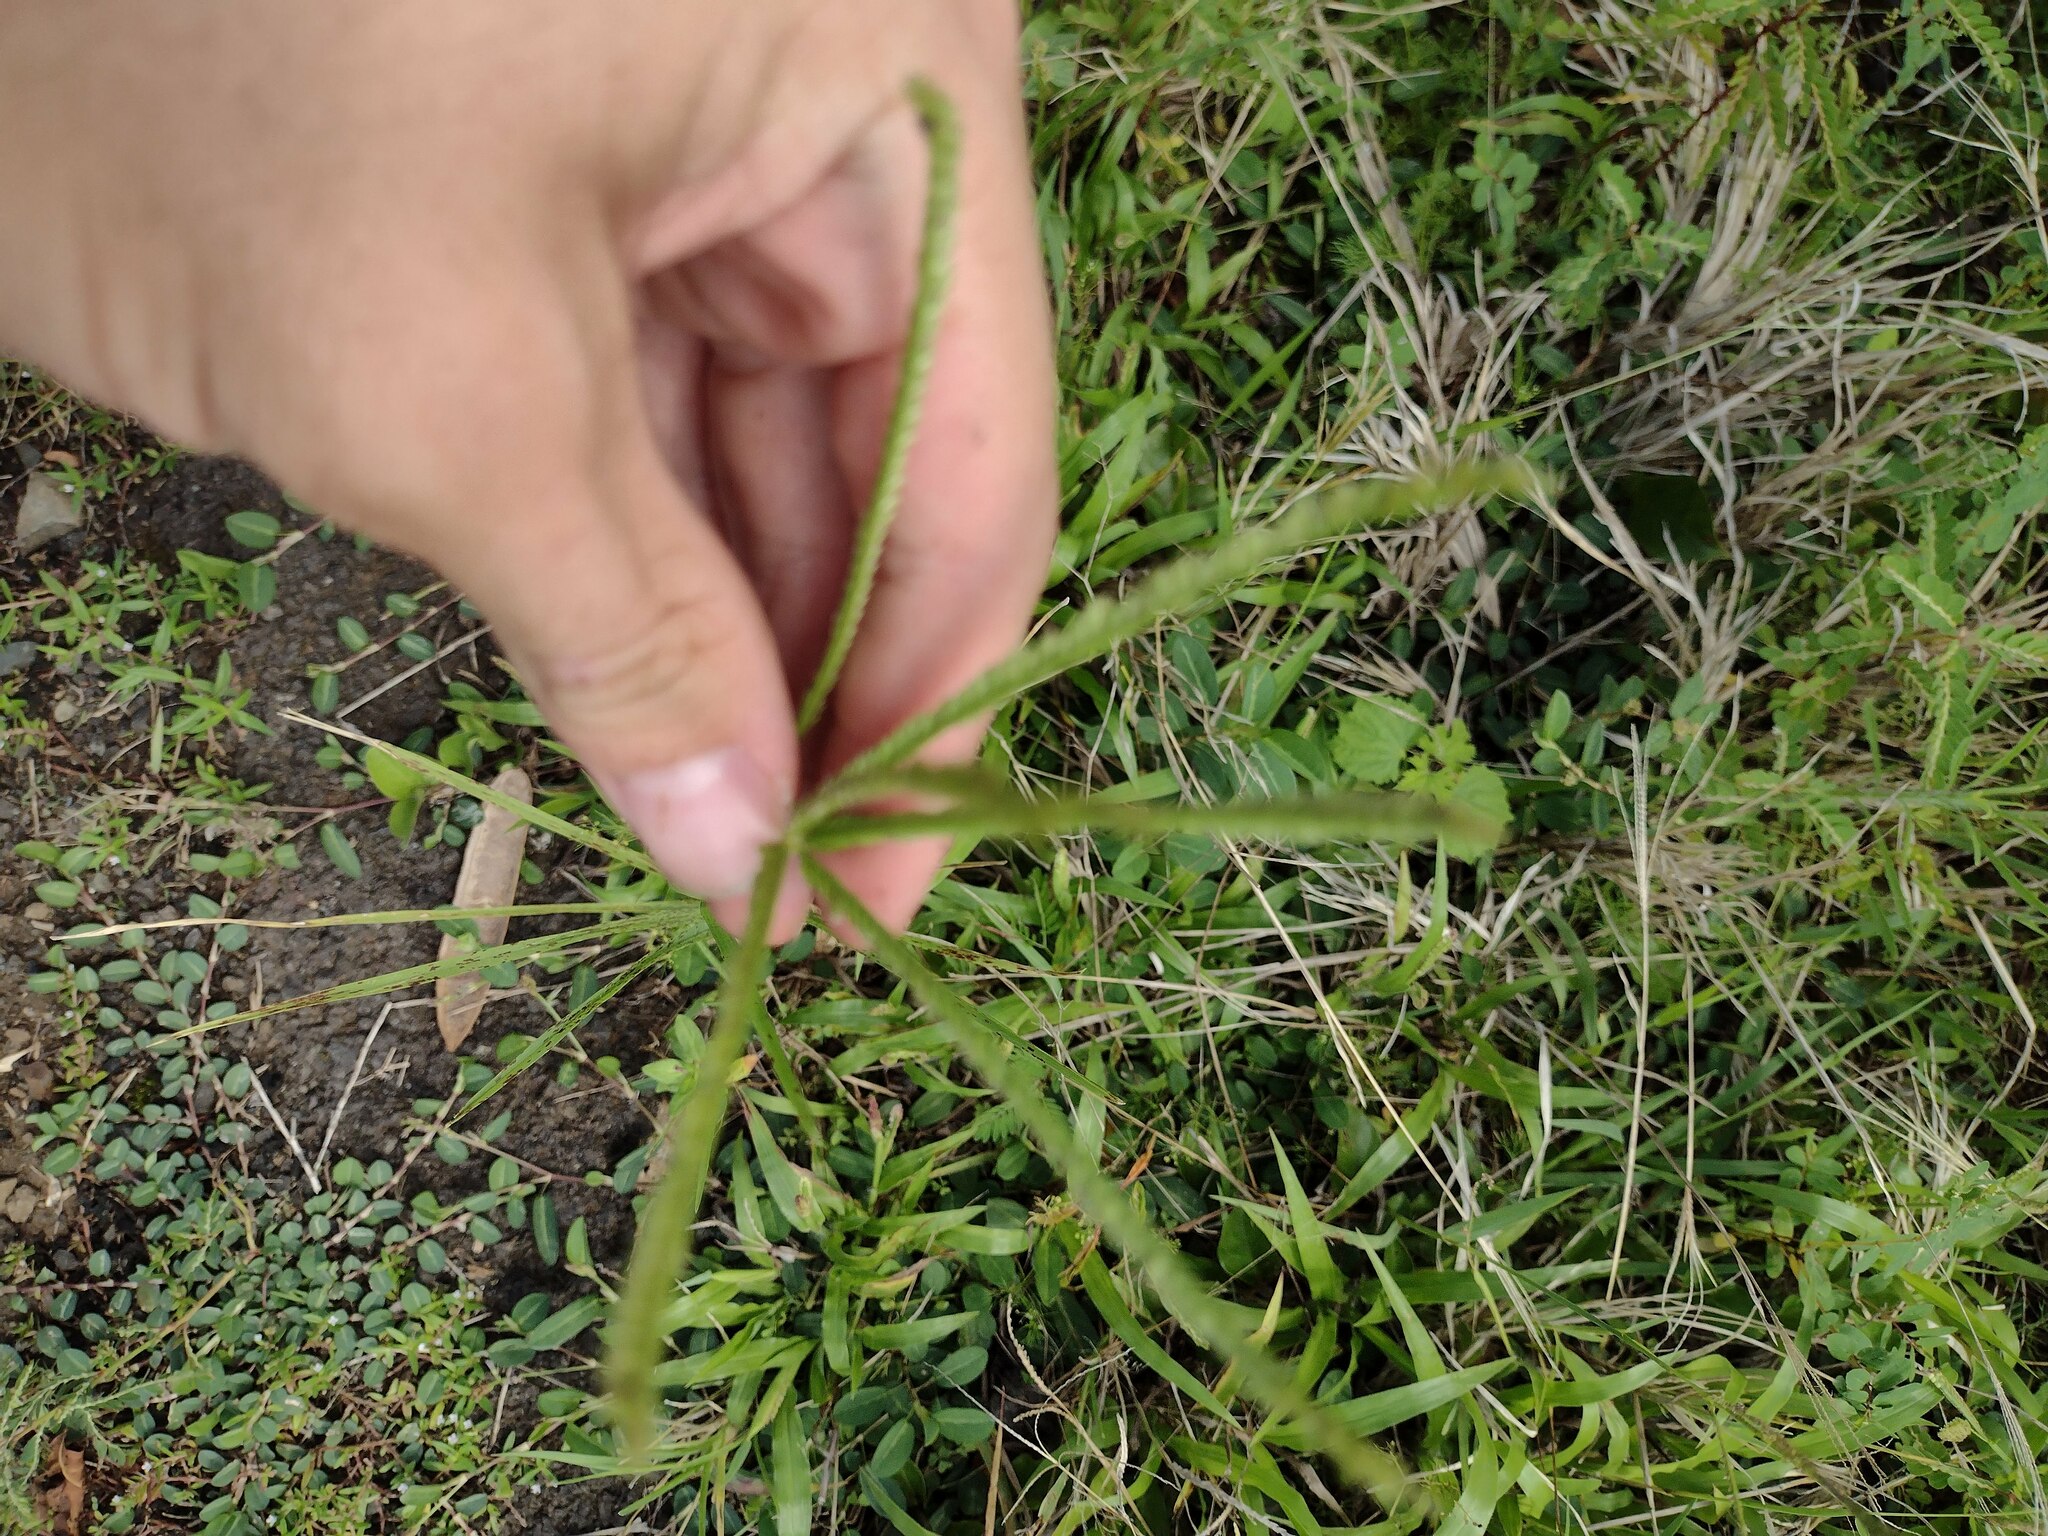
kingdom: Plantae
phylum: Tracheophyta
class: Liliopsida
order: Poales
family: Poaceae
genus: Eleusine
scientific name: Eleusine indica
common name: Yard-grass
